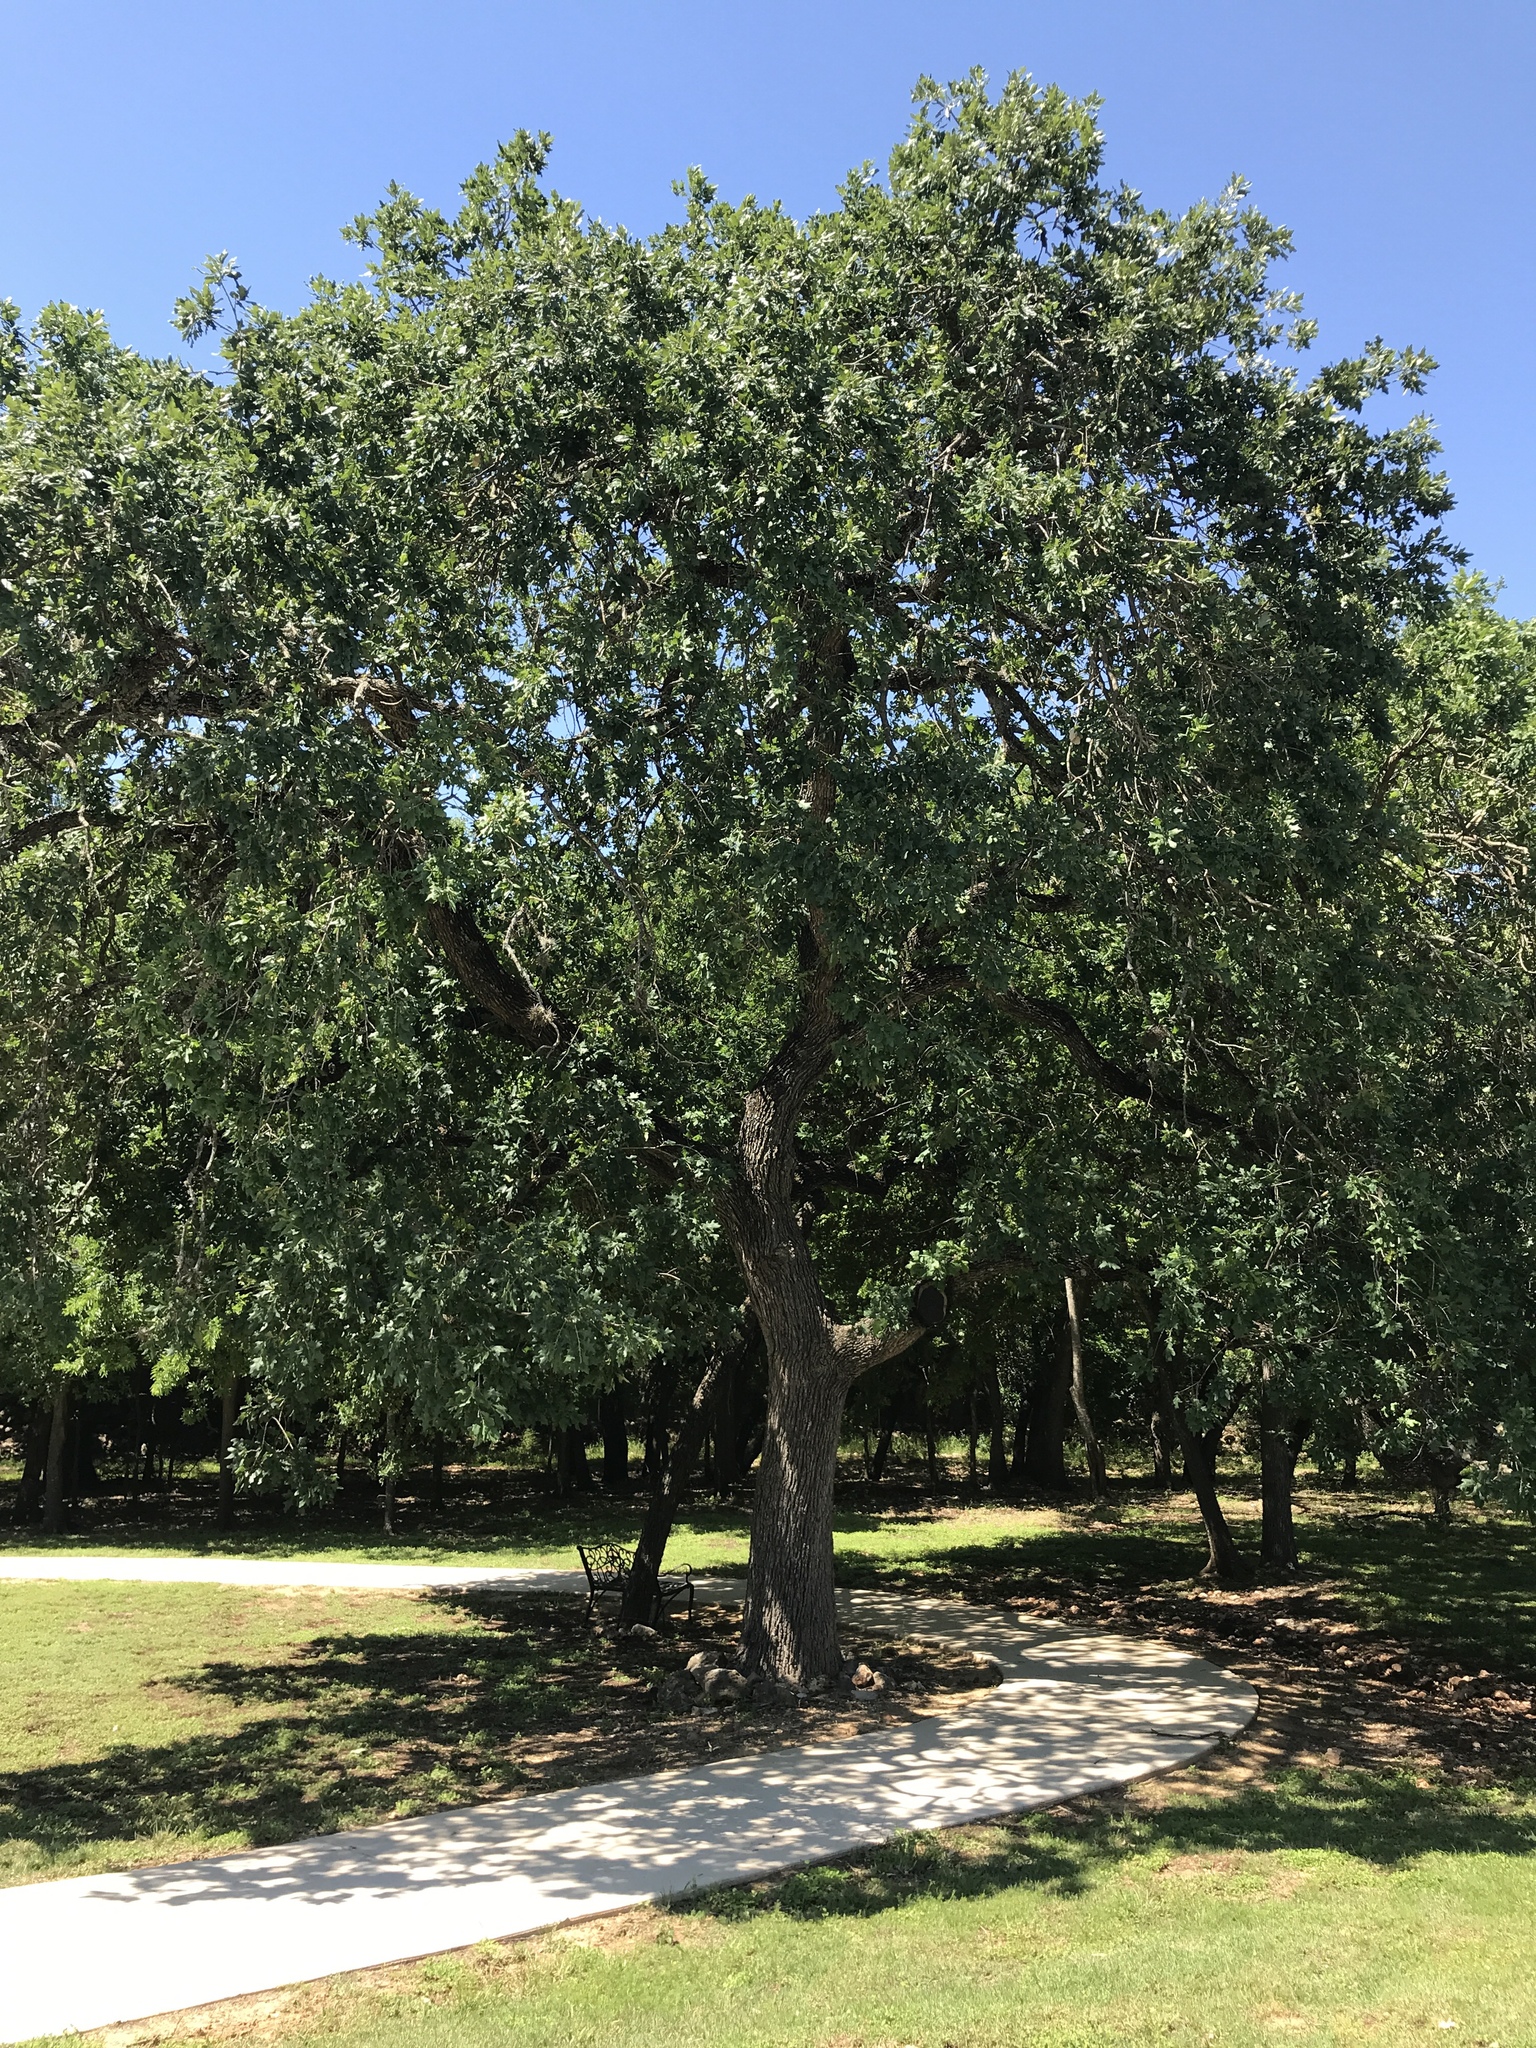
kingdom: Plantae
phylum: Tracheophyta
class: Magnoliopsida
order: Fagales
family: Fagaceae
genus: Quercus
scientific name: Quercus stellata
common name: Post oak
